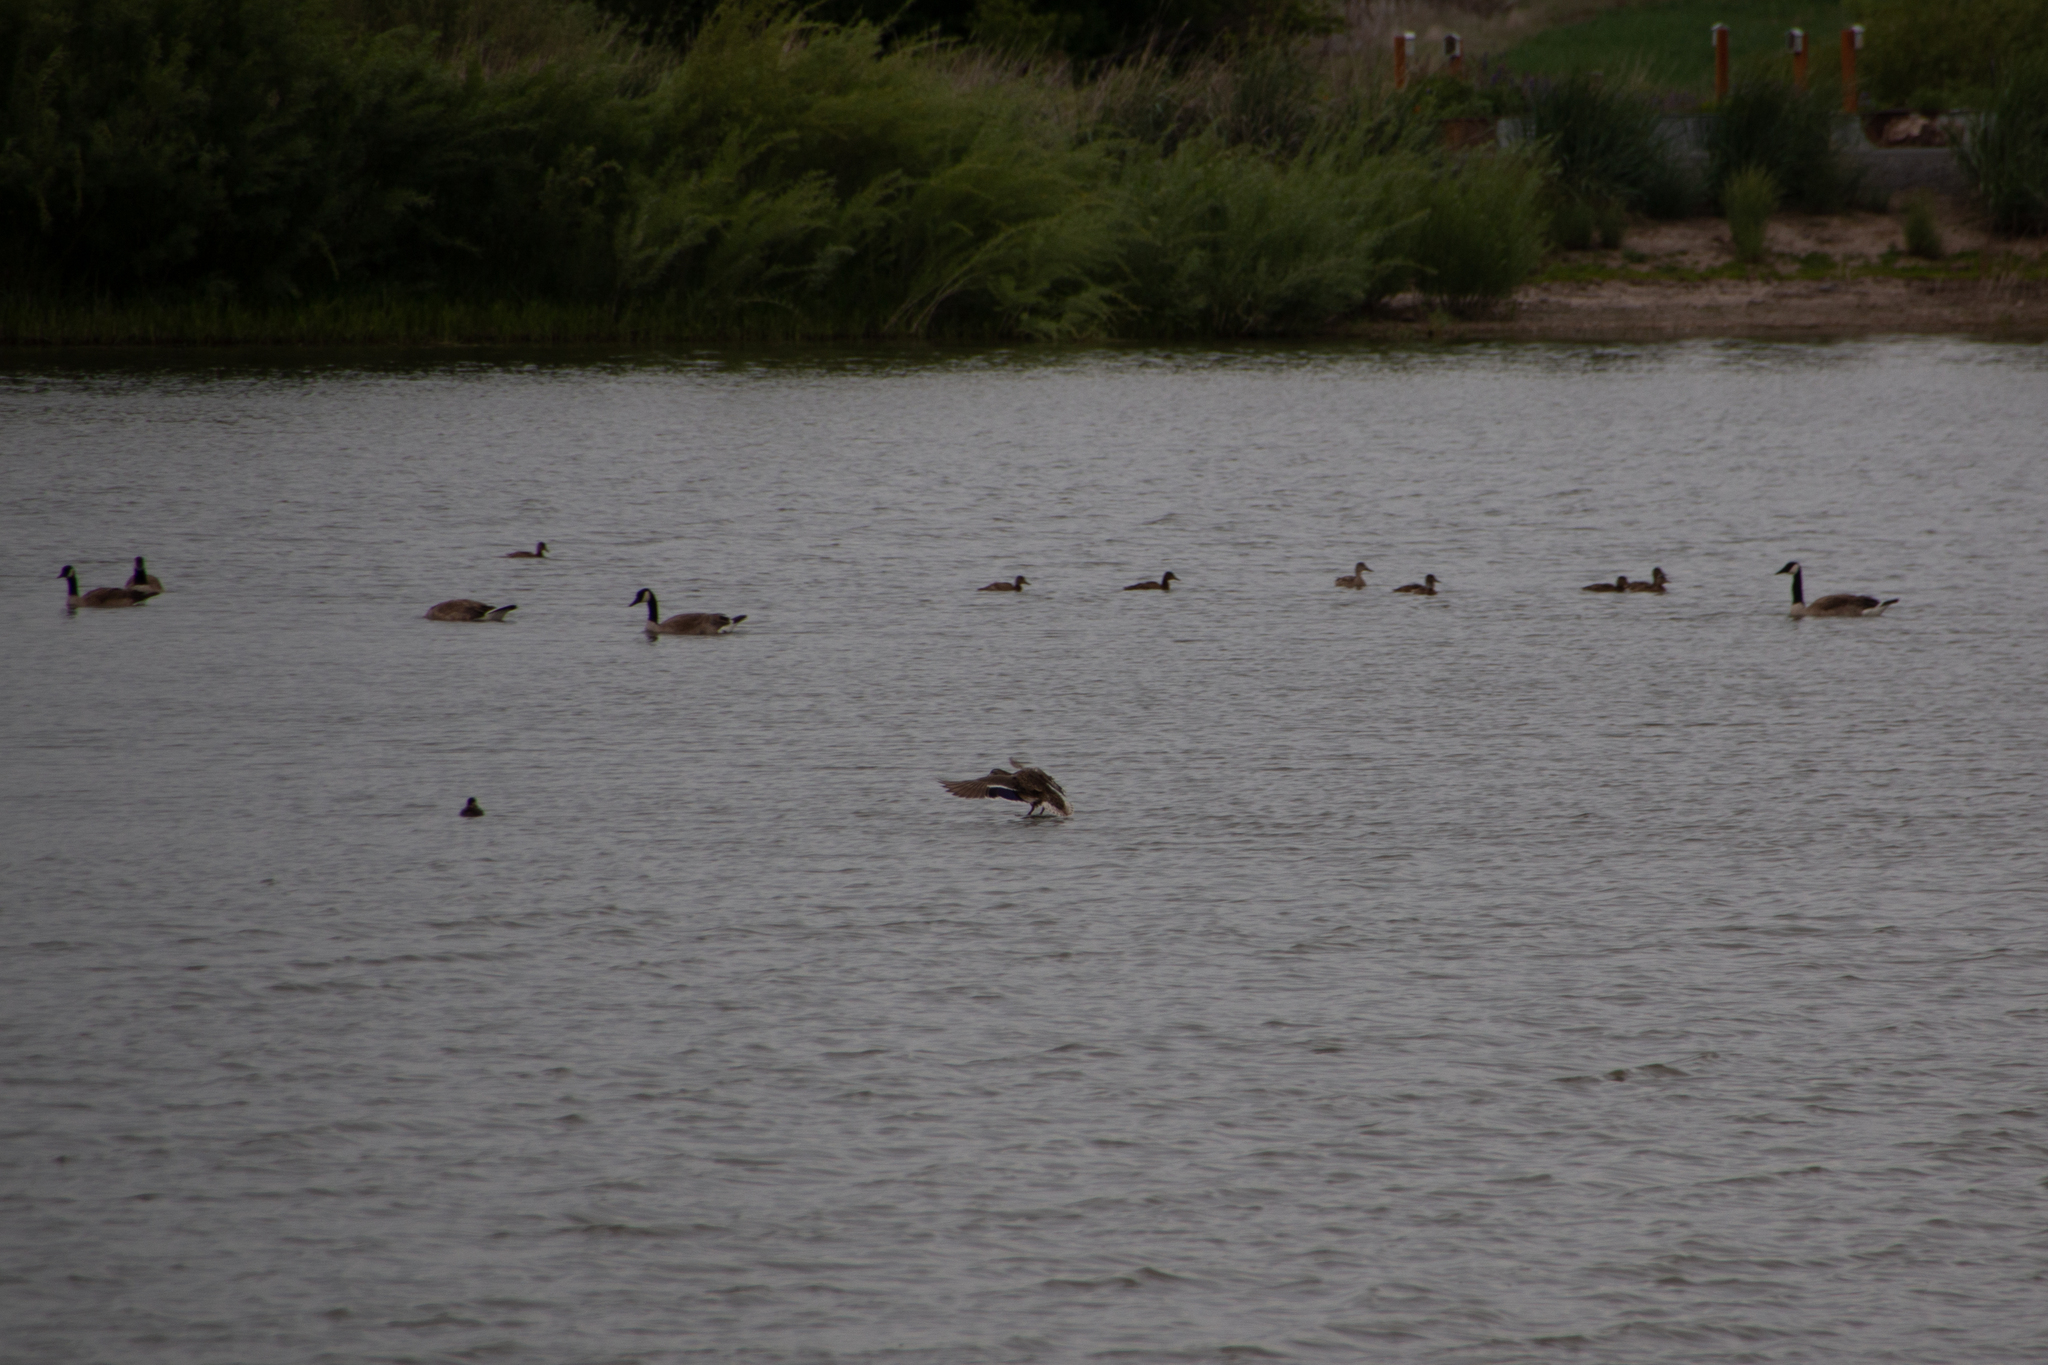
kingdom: Animalia
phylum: Chordata
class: Aves
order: Anseriformes
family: Anatidae
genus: Anas
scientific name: Anas platyrhynchos
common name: Mallard
